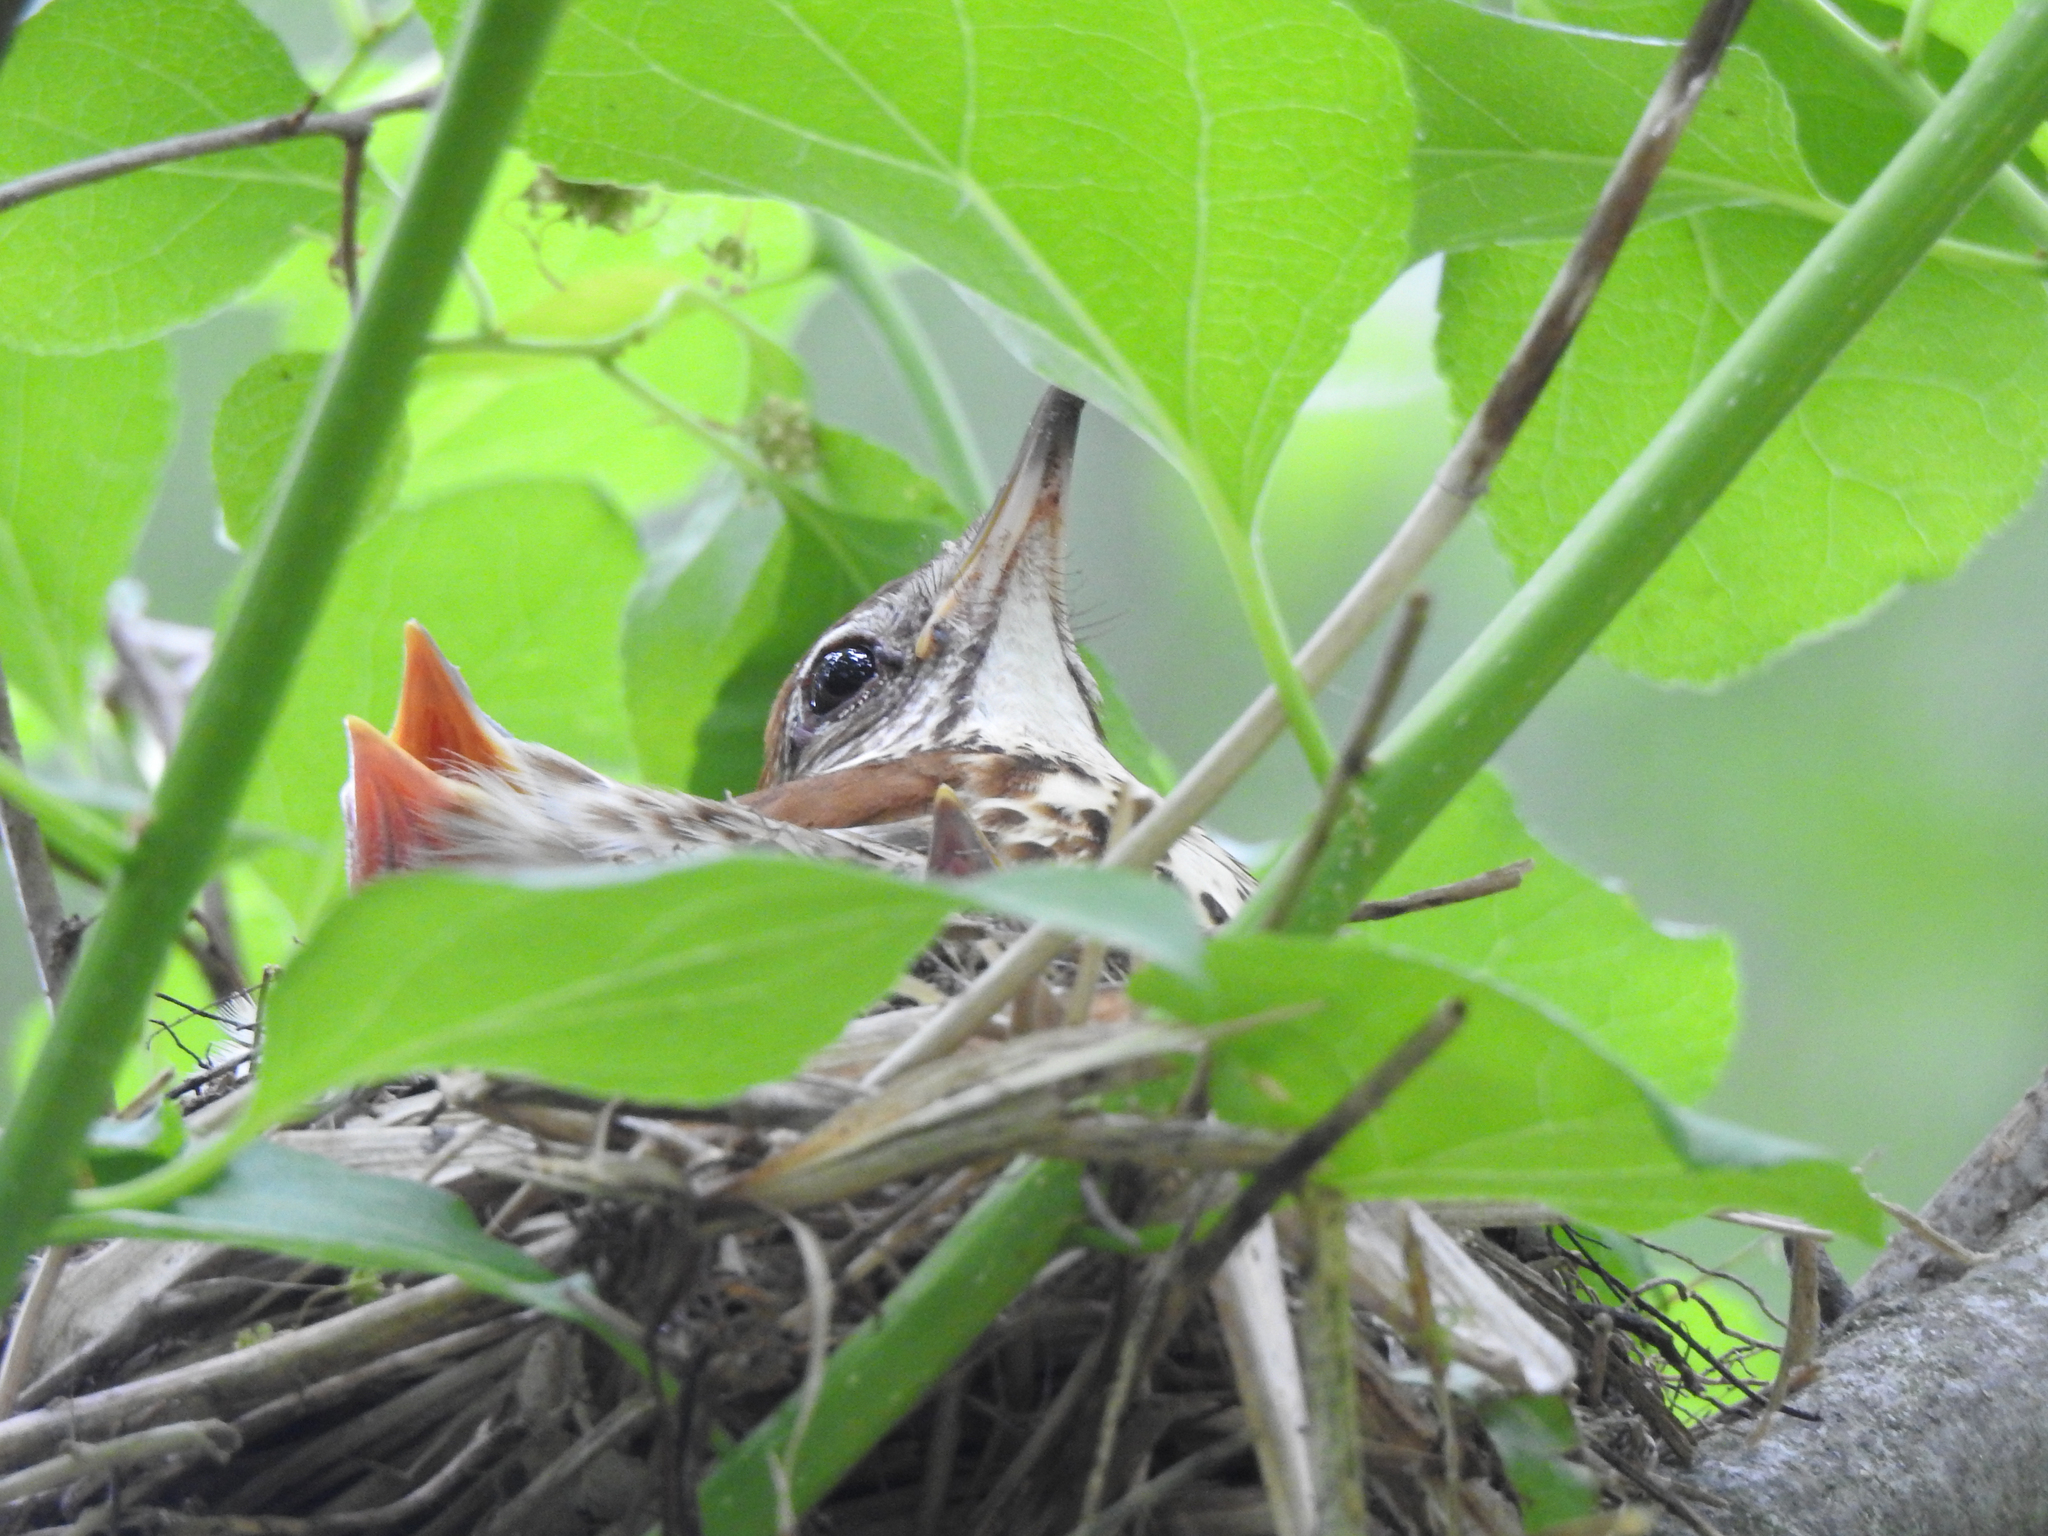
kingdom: Animalia
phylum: Chordata
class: Aves
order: Passeriformes
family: Turdidae
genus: Hylocichla
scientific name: Hylocichla mustelina
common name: Wood thrush
